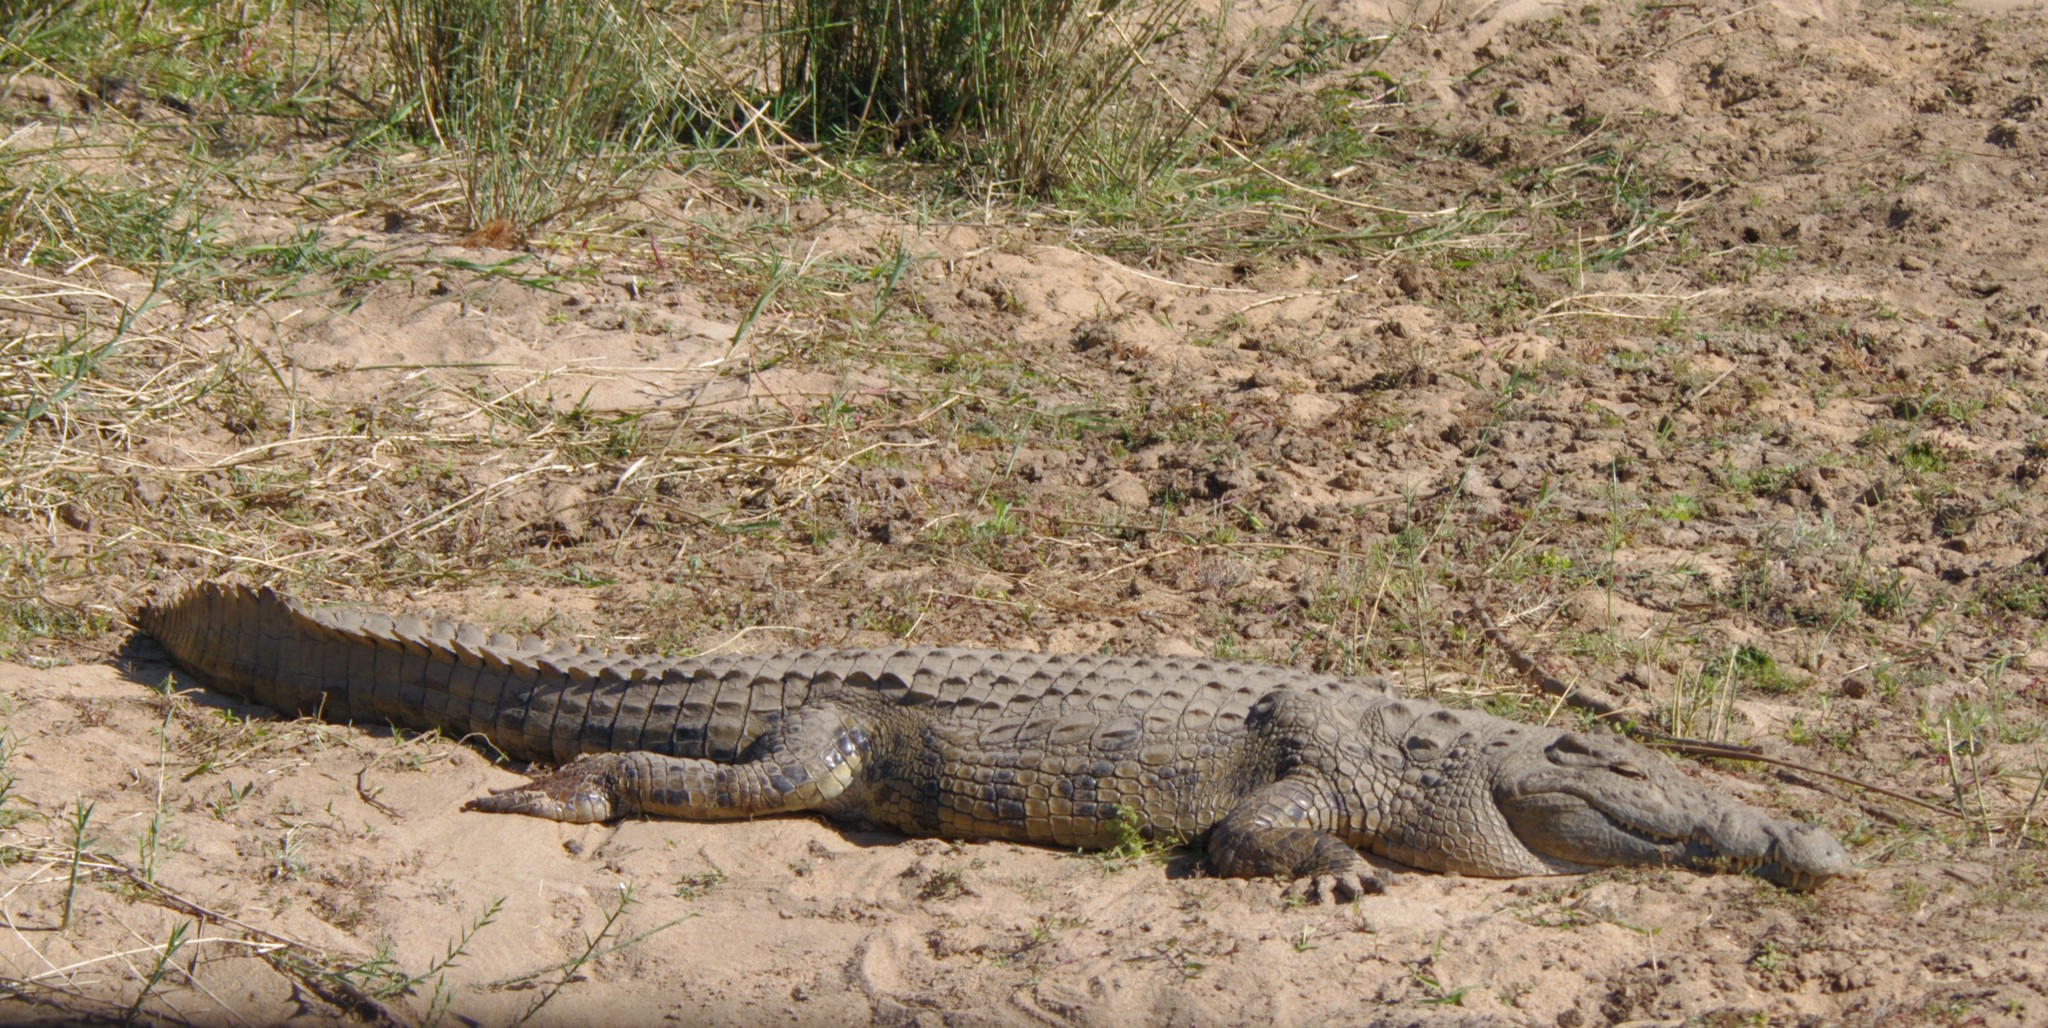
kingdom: Animalia
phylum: Chordata
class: Crocodylia
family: Crocodylidae
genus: Crocodylus
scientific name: Crocodylus niloticus
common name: Nile crocodile
